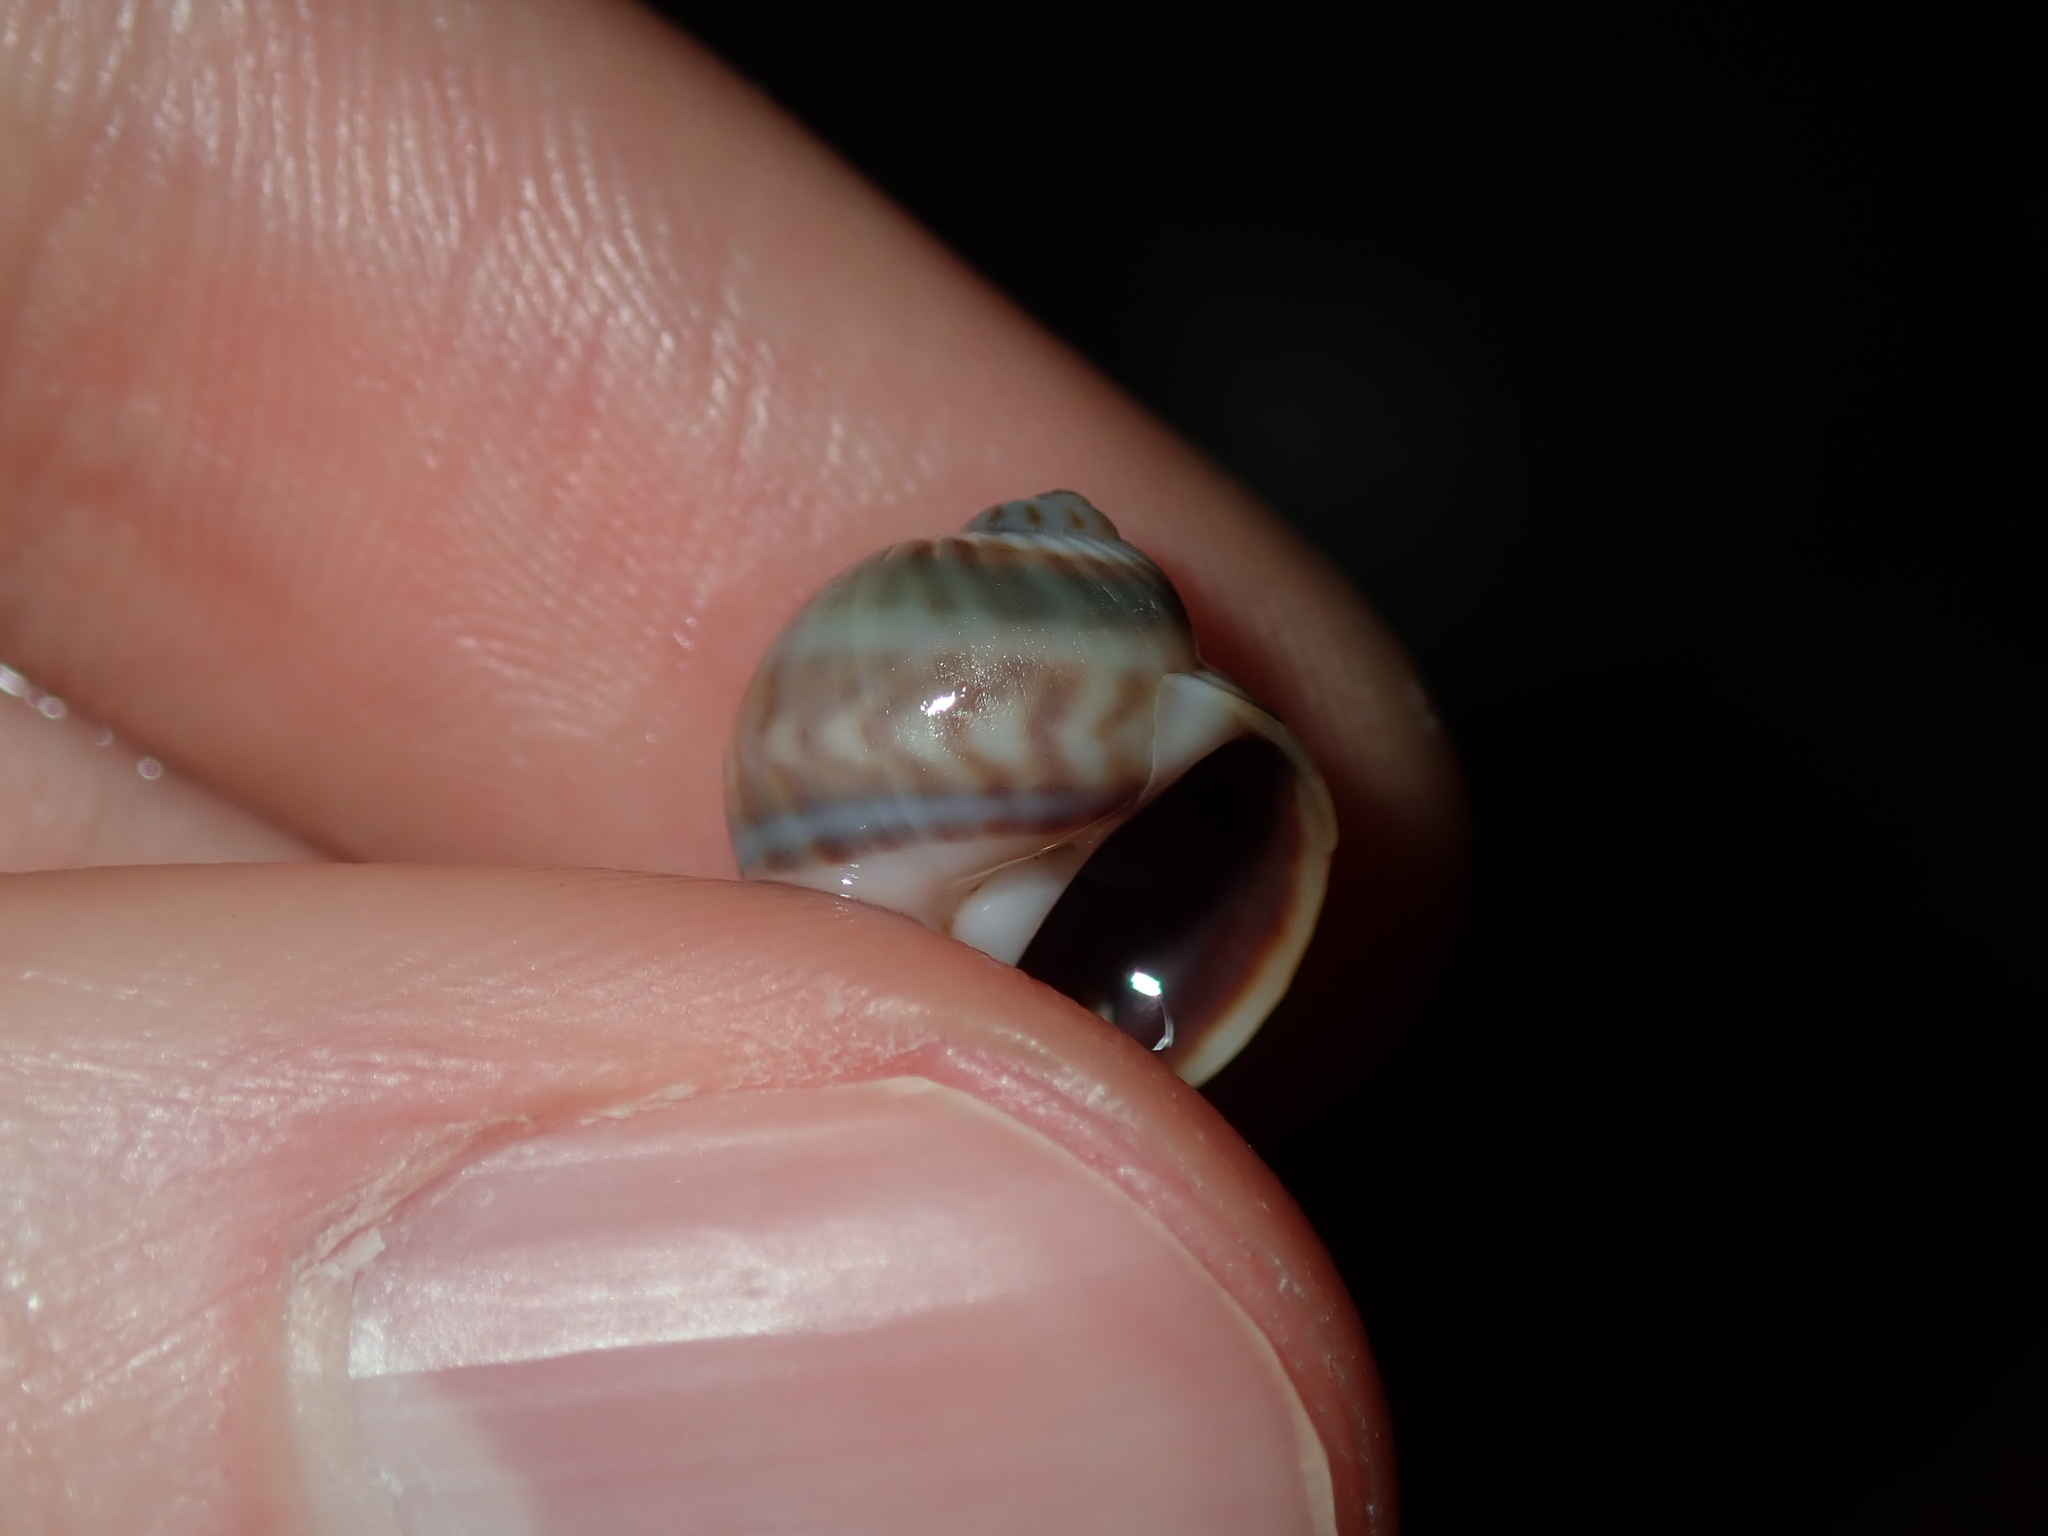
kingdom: Animalia
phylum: Mollusca
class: Gastropoda
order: Littorinimorpha
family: Naticidae
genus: Notocochlis
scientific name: Notocochlis gualteriana
